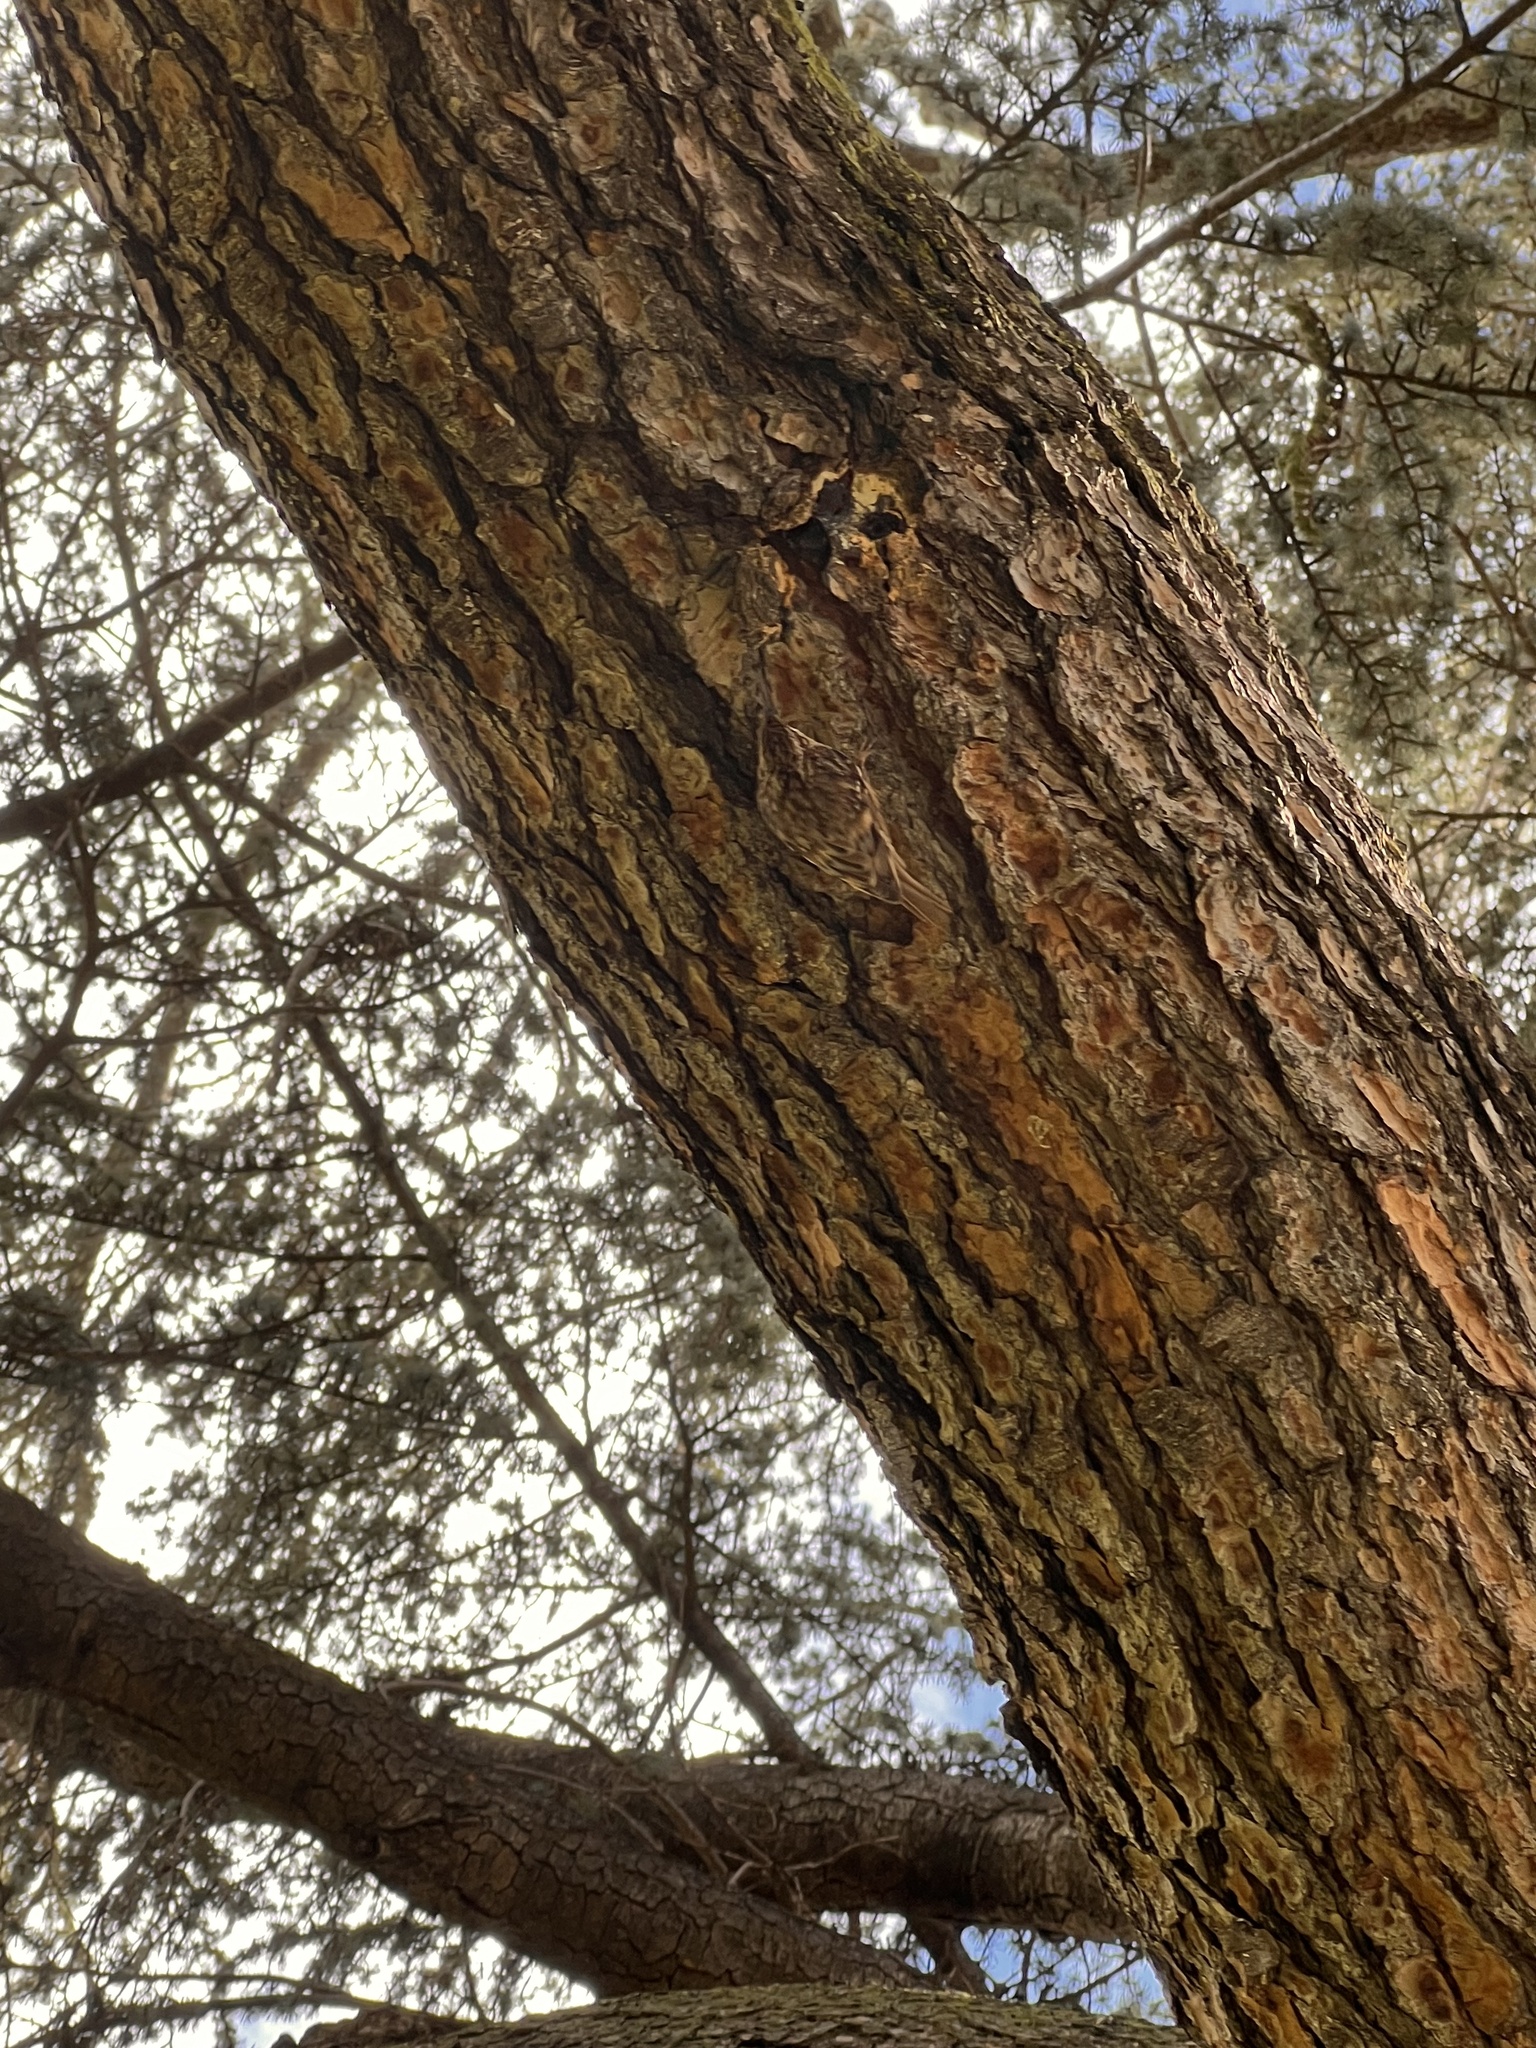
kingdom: Animalia
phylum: Chordata
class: Aves
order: Passeriformes
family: Certhiidae
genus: Certhia
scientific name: Certhia americana
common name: Brown creeper
